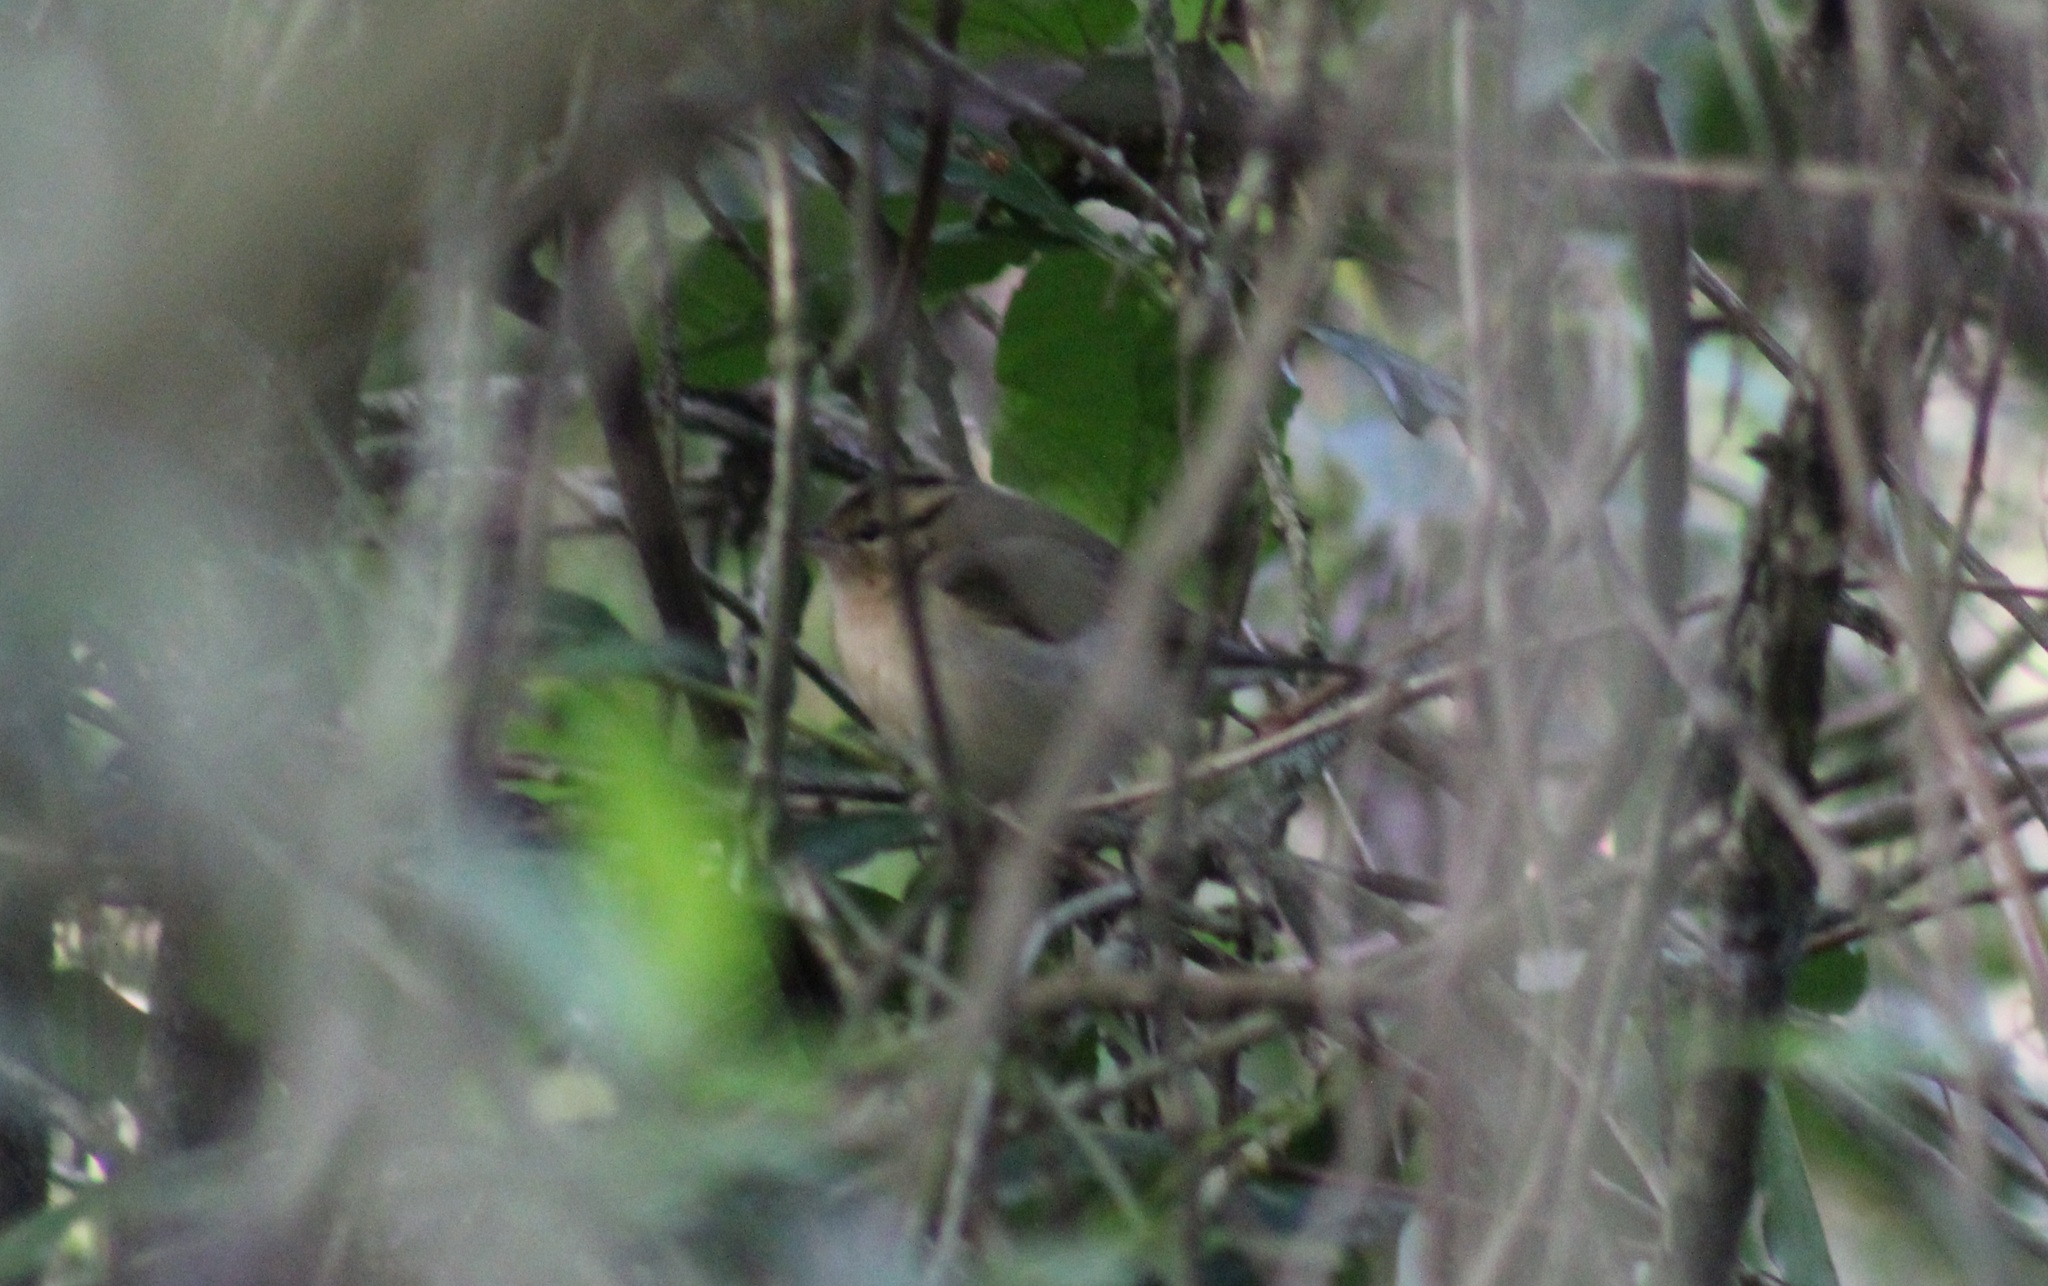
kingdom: Animalia
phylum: Chordata
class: Aves
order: Passeriformes
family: Parulidae
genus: Helmitheros
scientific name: Helmitheros vermivorum
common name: Worm-eating warbler
